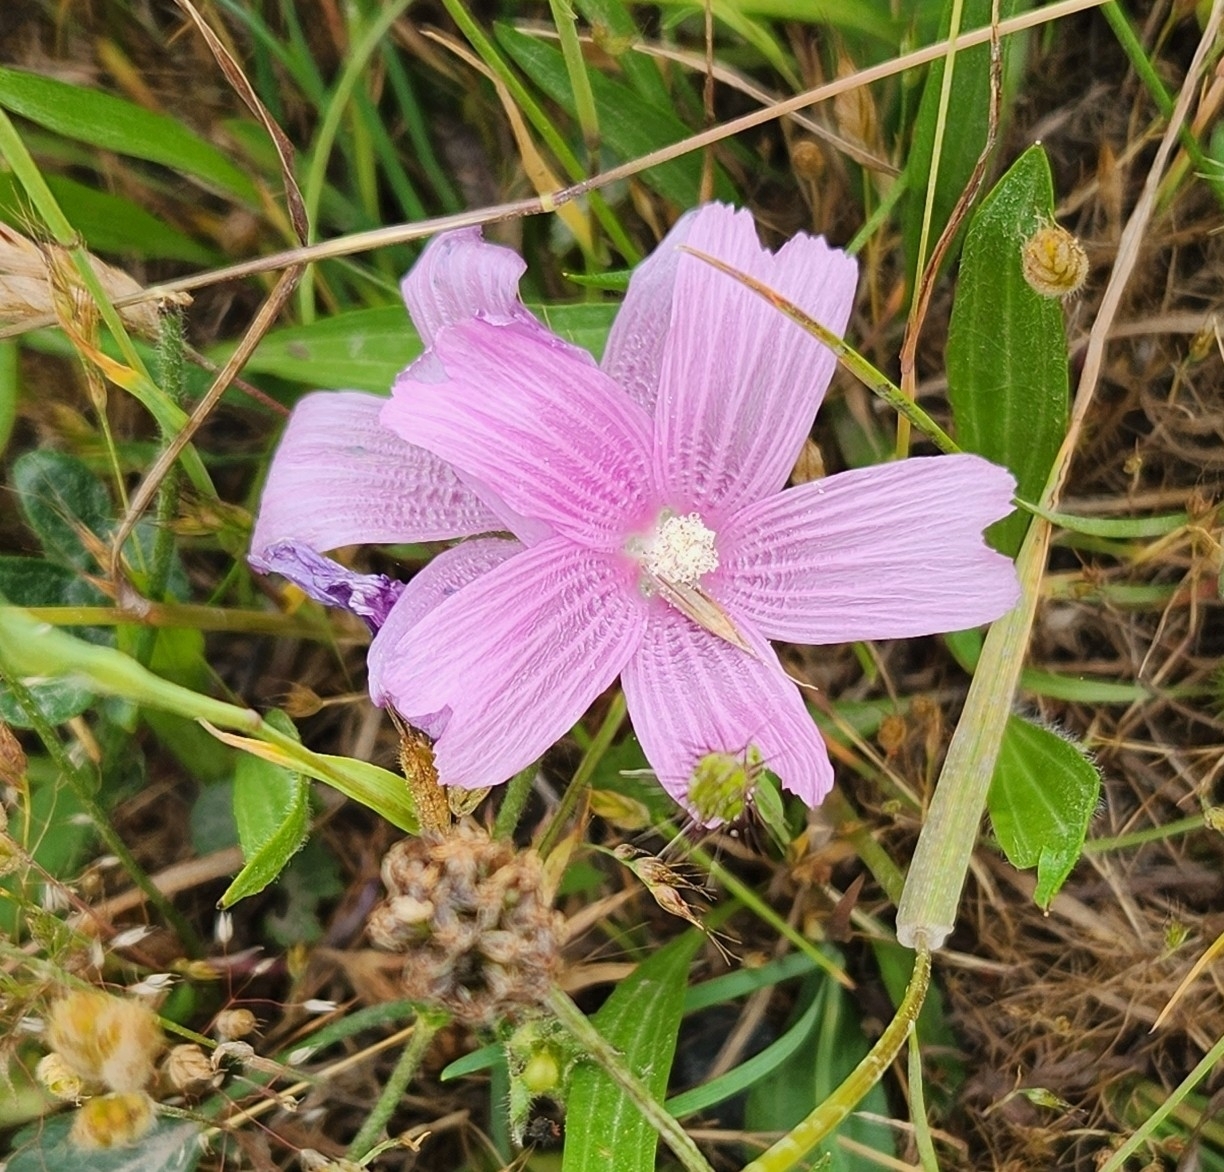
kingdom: Plantae
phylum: Tracheophyta
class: Magnoliopsida
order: Malvales
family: Malvaceae
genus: Sidalcea
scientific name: Sidalcea malviflora
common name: Greek mallow
